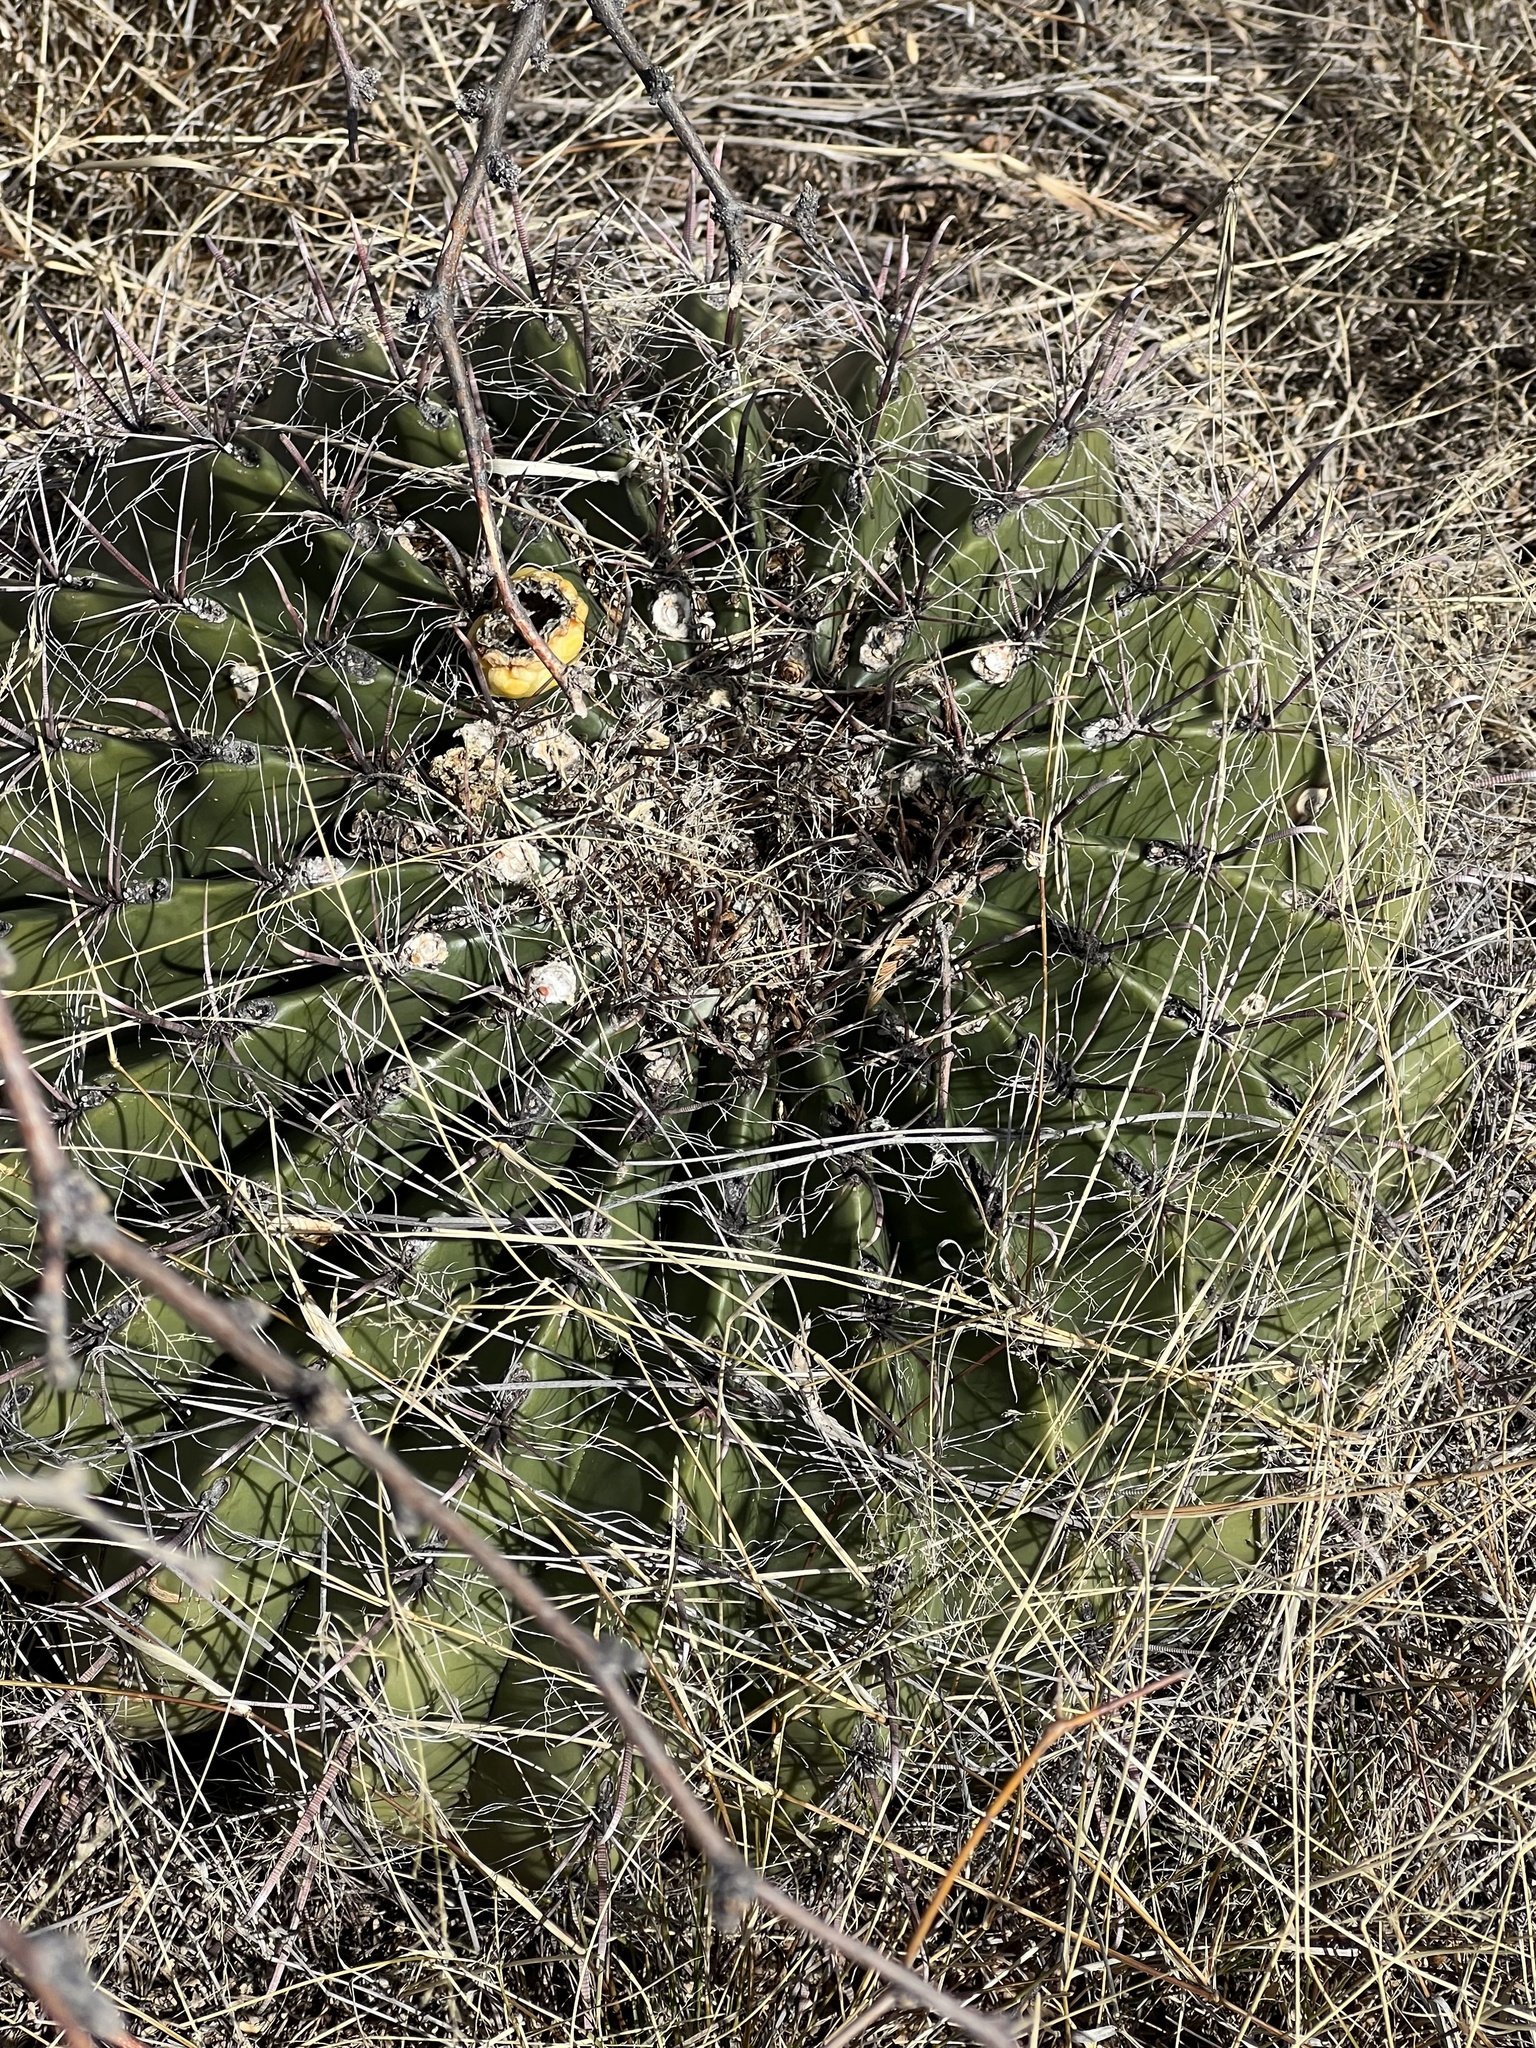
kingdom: Plantae
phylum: Tracheophyta
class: Magnoliopsida
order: Caryophyllales
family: Cactaceae
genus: Ferocactus
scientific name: Ferocactus wislizeni
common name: Candy barrel cactus
